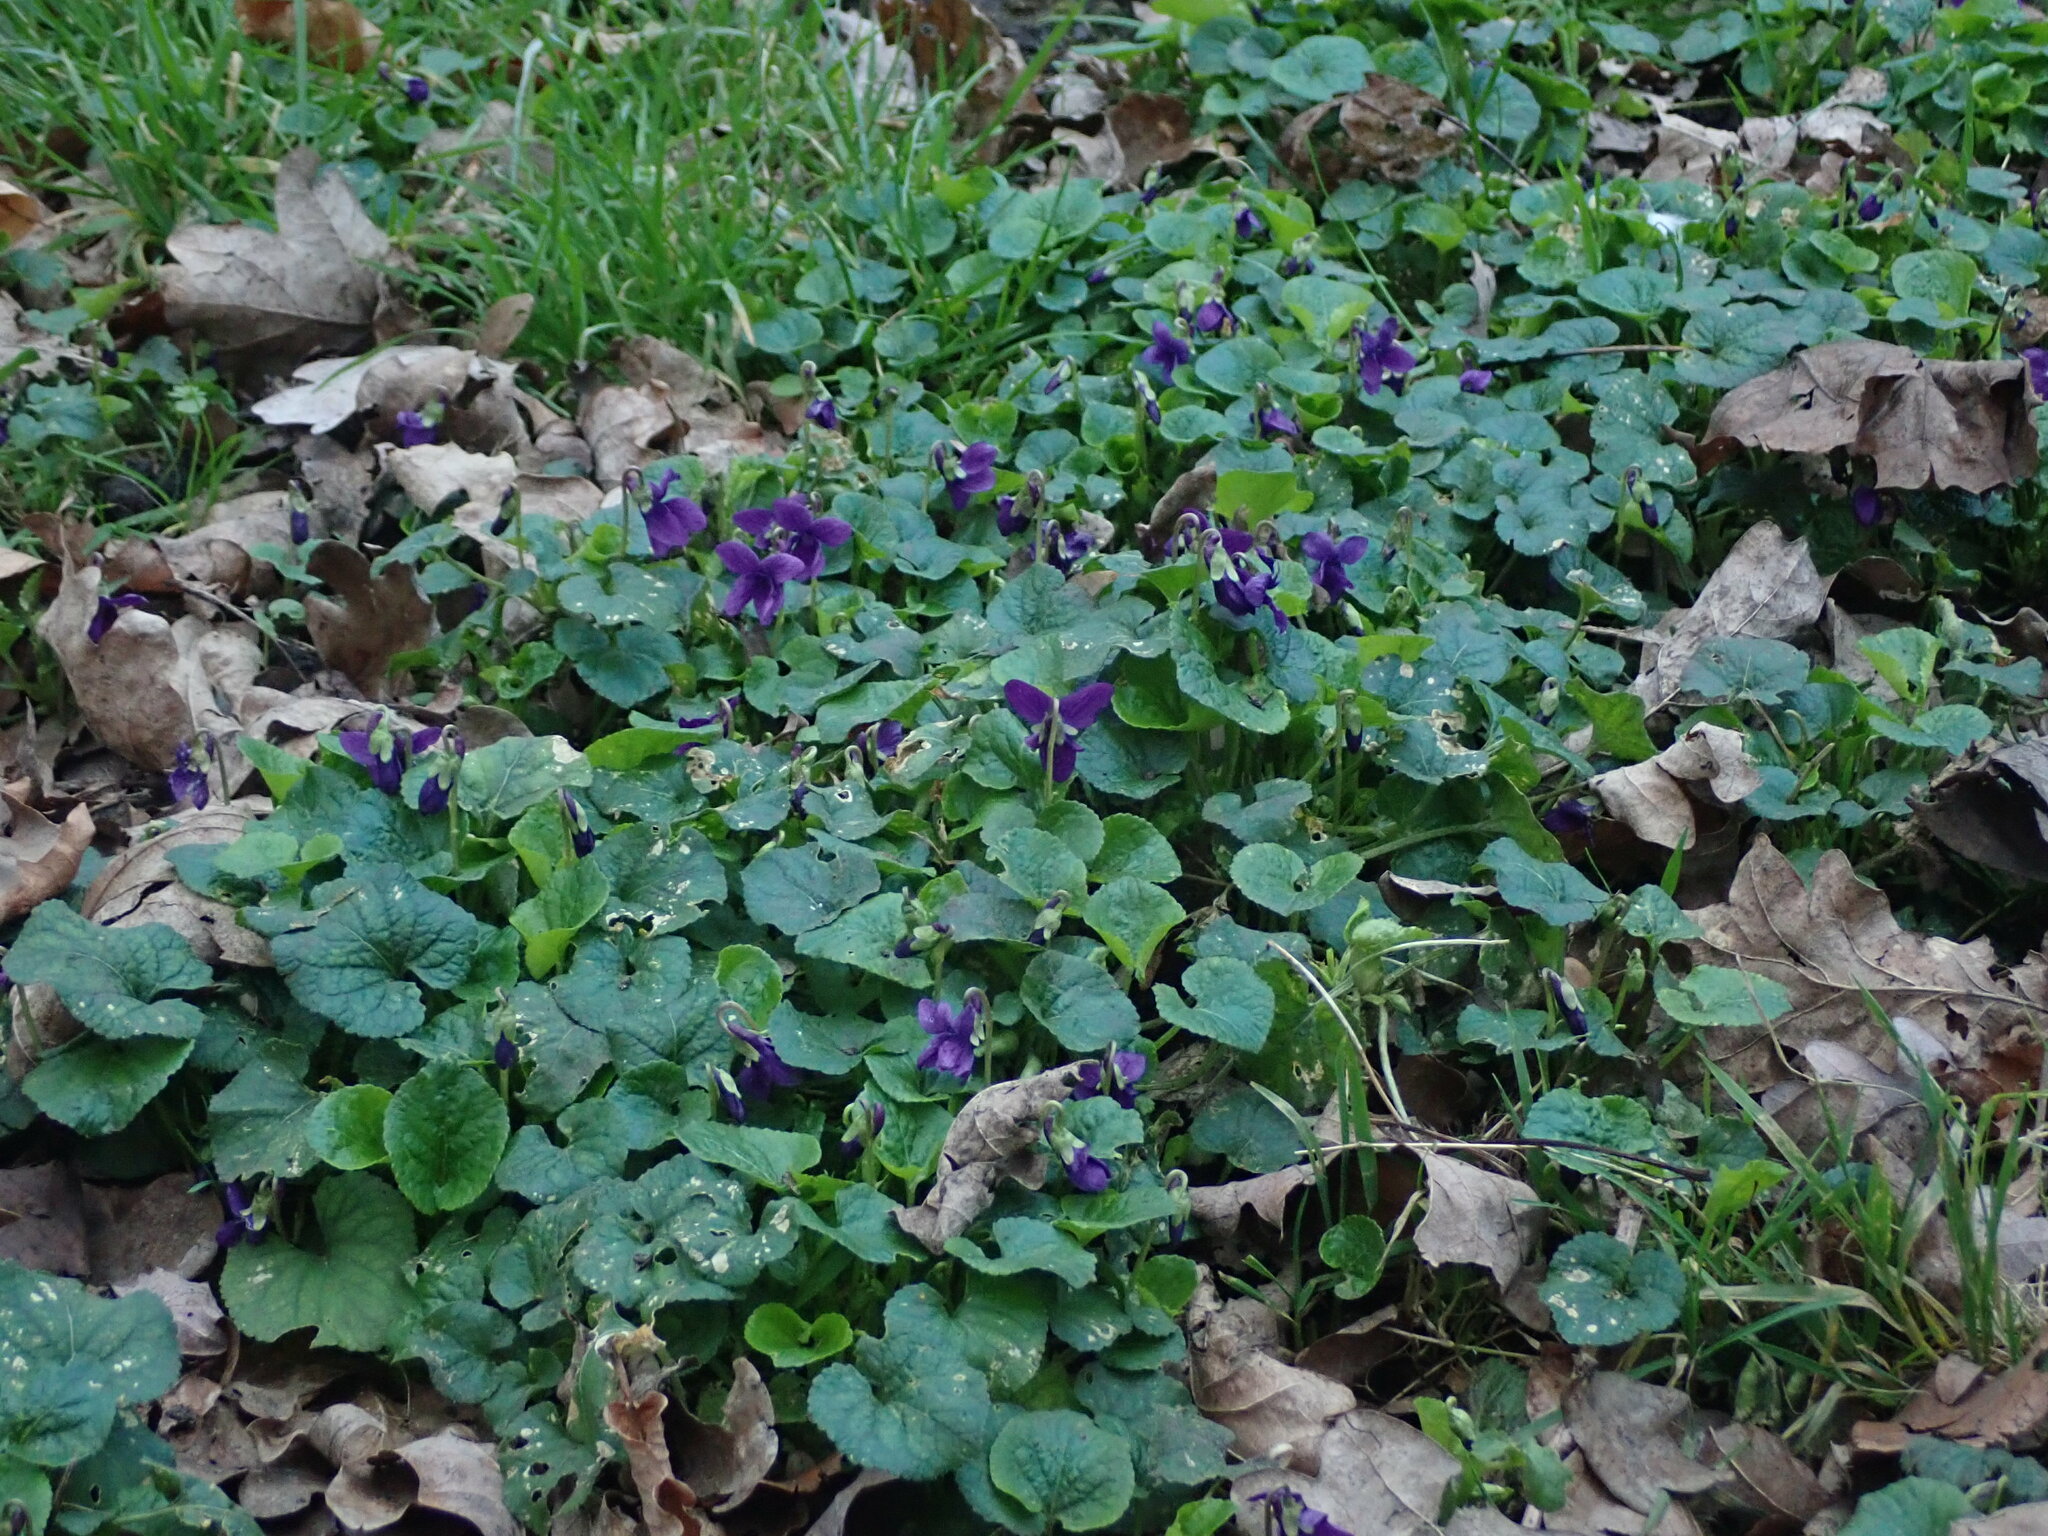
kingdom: Plantae
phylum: Tracheophyta
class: Magnoliopsida
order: Malpighiales
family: Violaceae
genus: Viola
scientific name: Viola odorata
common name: Sweet violet
